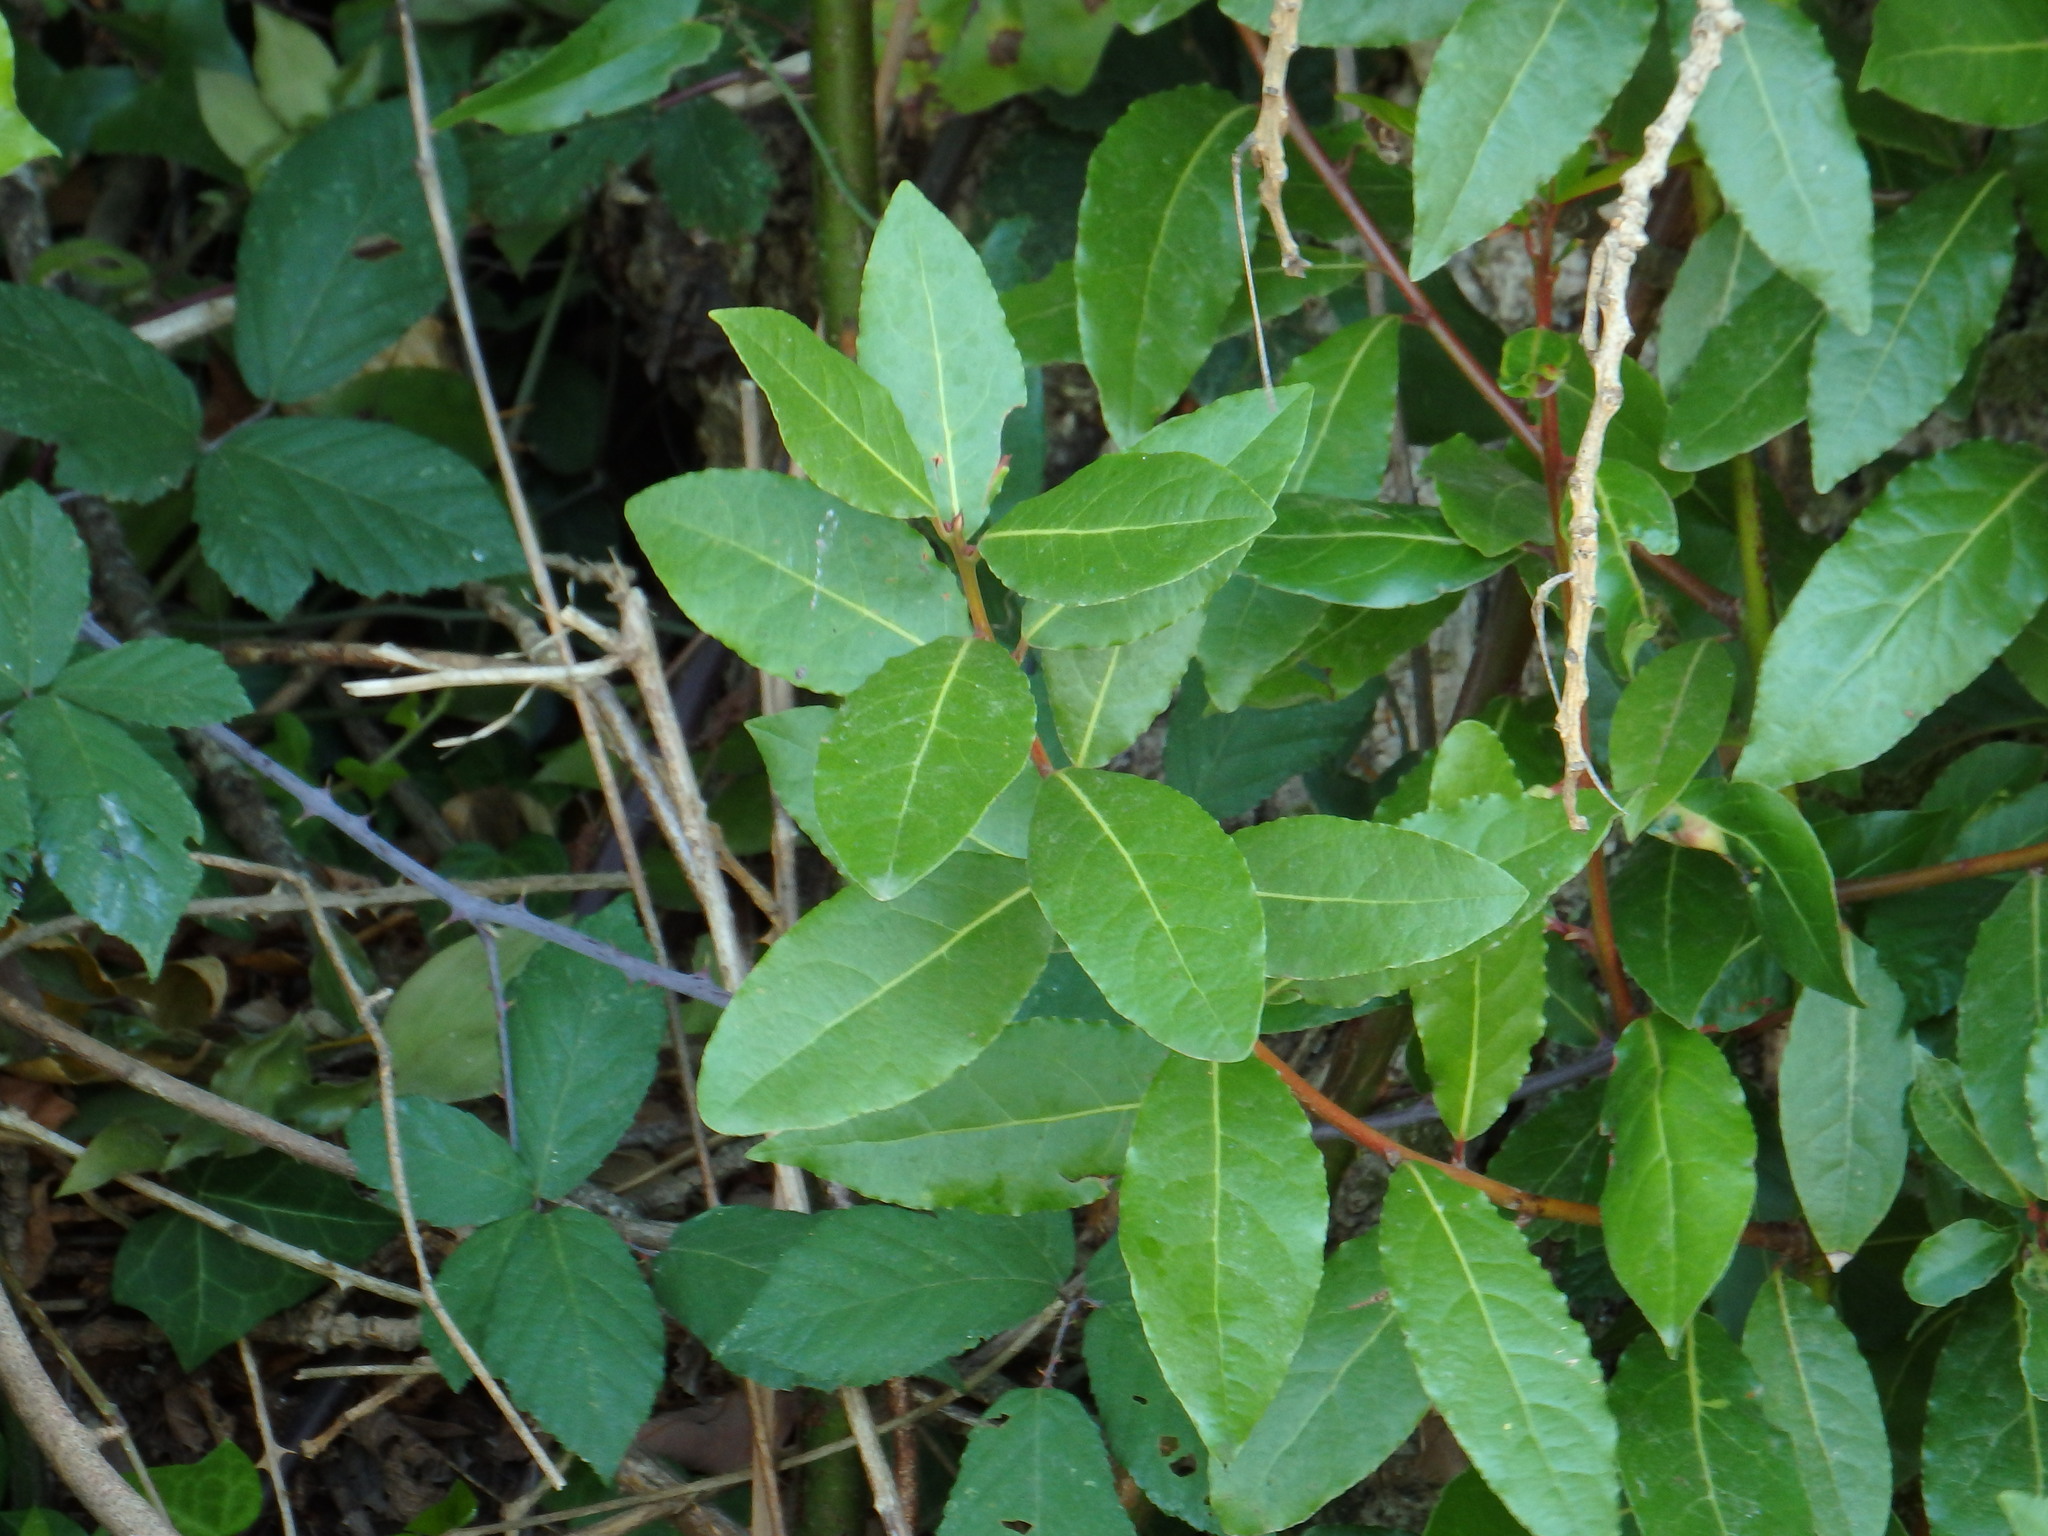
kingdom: Plantae
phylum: Tracheophyta
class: Magnoliopsida
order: Laurales
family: Lauraceae
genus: Laurus
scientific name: Laurus nobilis
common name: Bay
